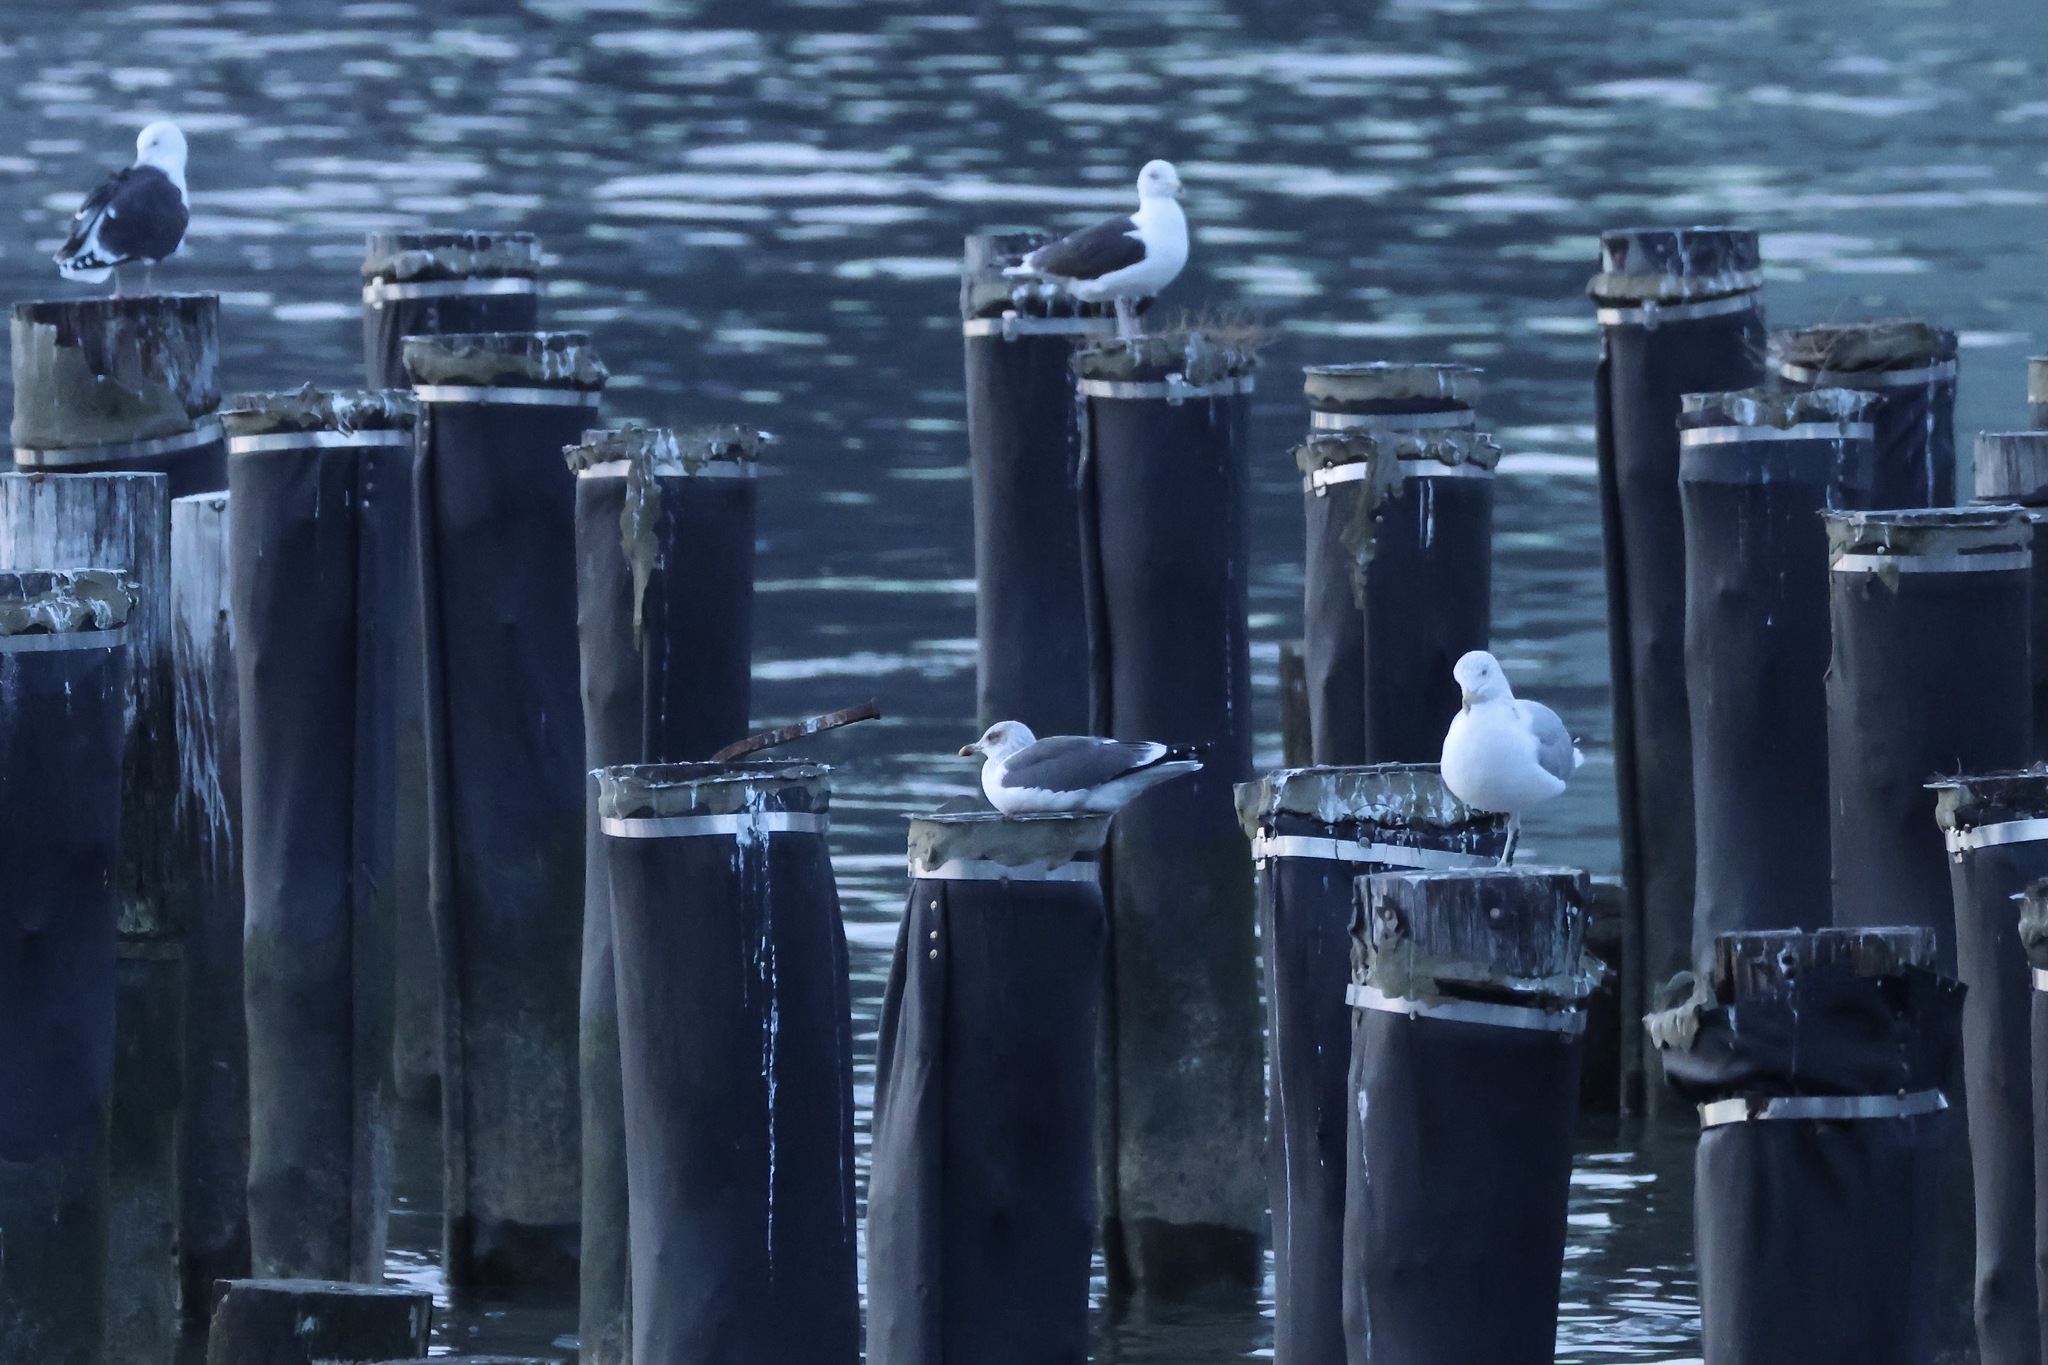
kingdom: Animalia
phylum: Chordata
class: Aves
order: Charadriiformes
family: Laridae
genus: Larus
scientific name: Larus fuscus
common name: Lesser black-backed gull
